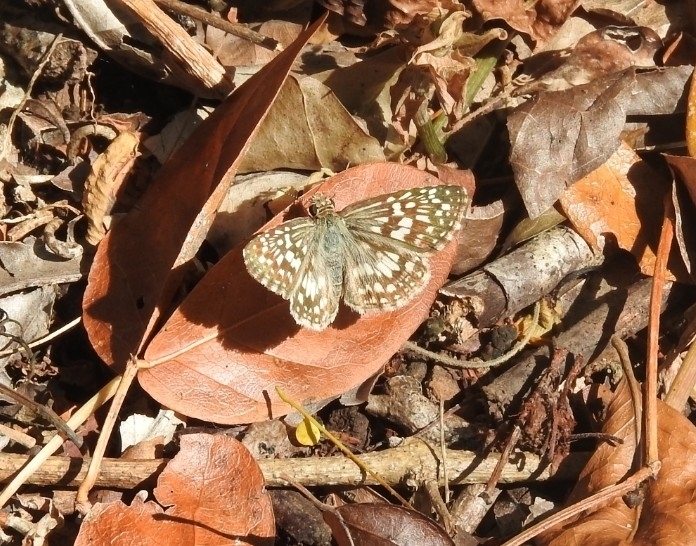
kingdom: Animalia
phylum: Arthropoda
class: Insecta
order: Lepidoptera
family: Hesperiidae
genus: Pyrgus
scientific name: Pyrgus oileus
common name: Tropical checkered-skipper
